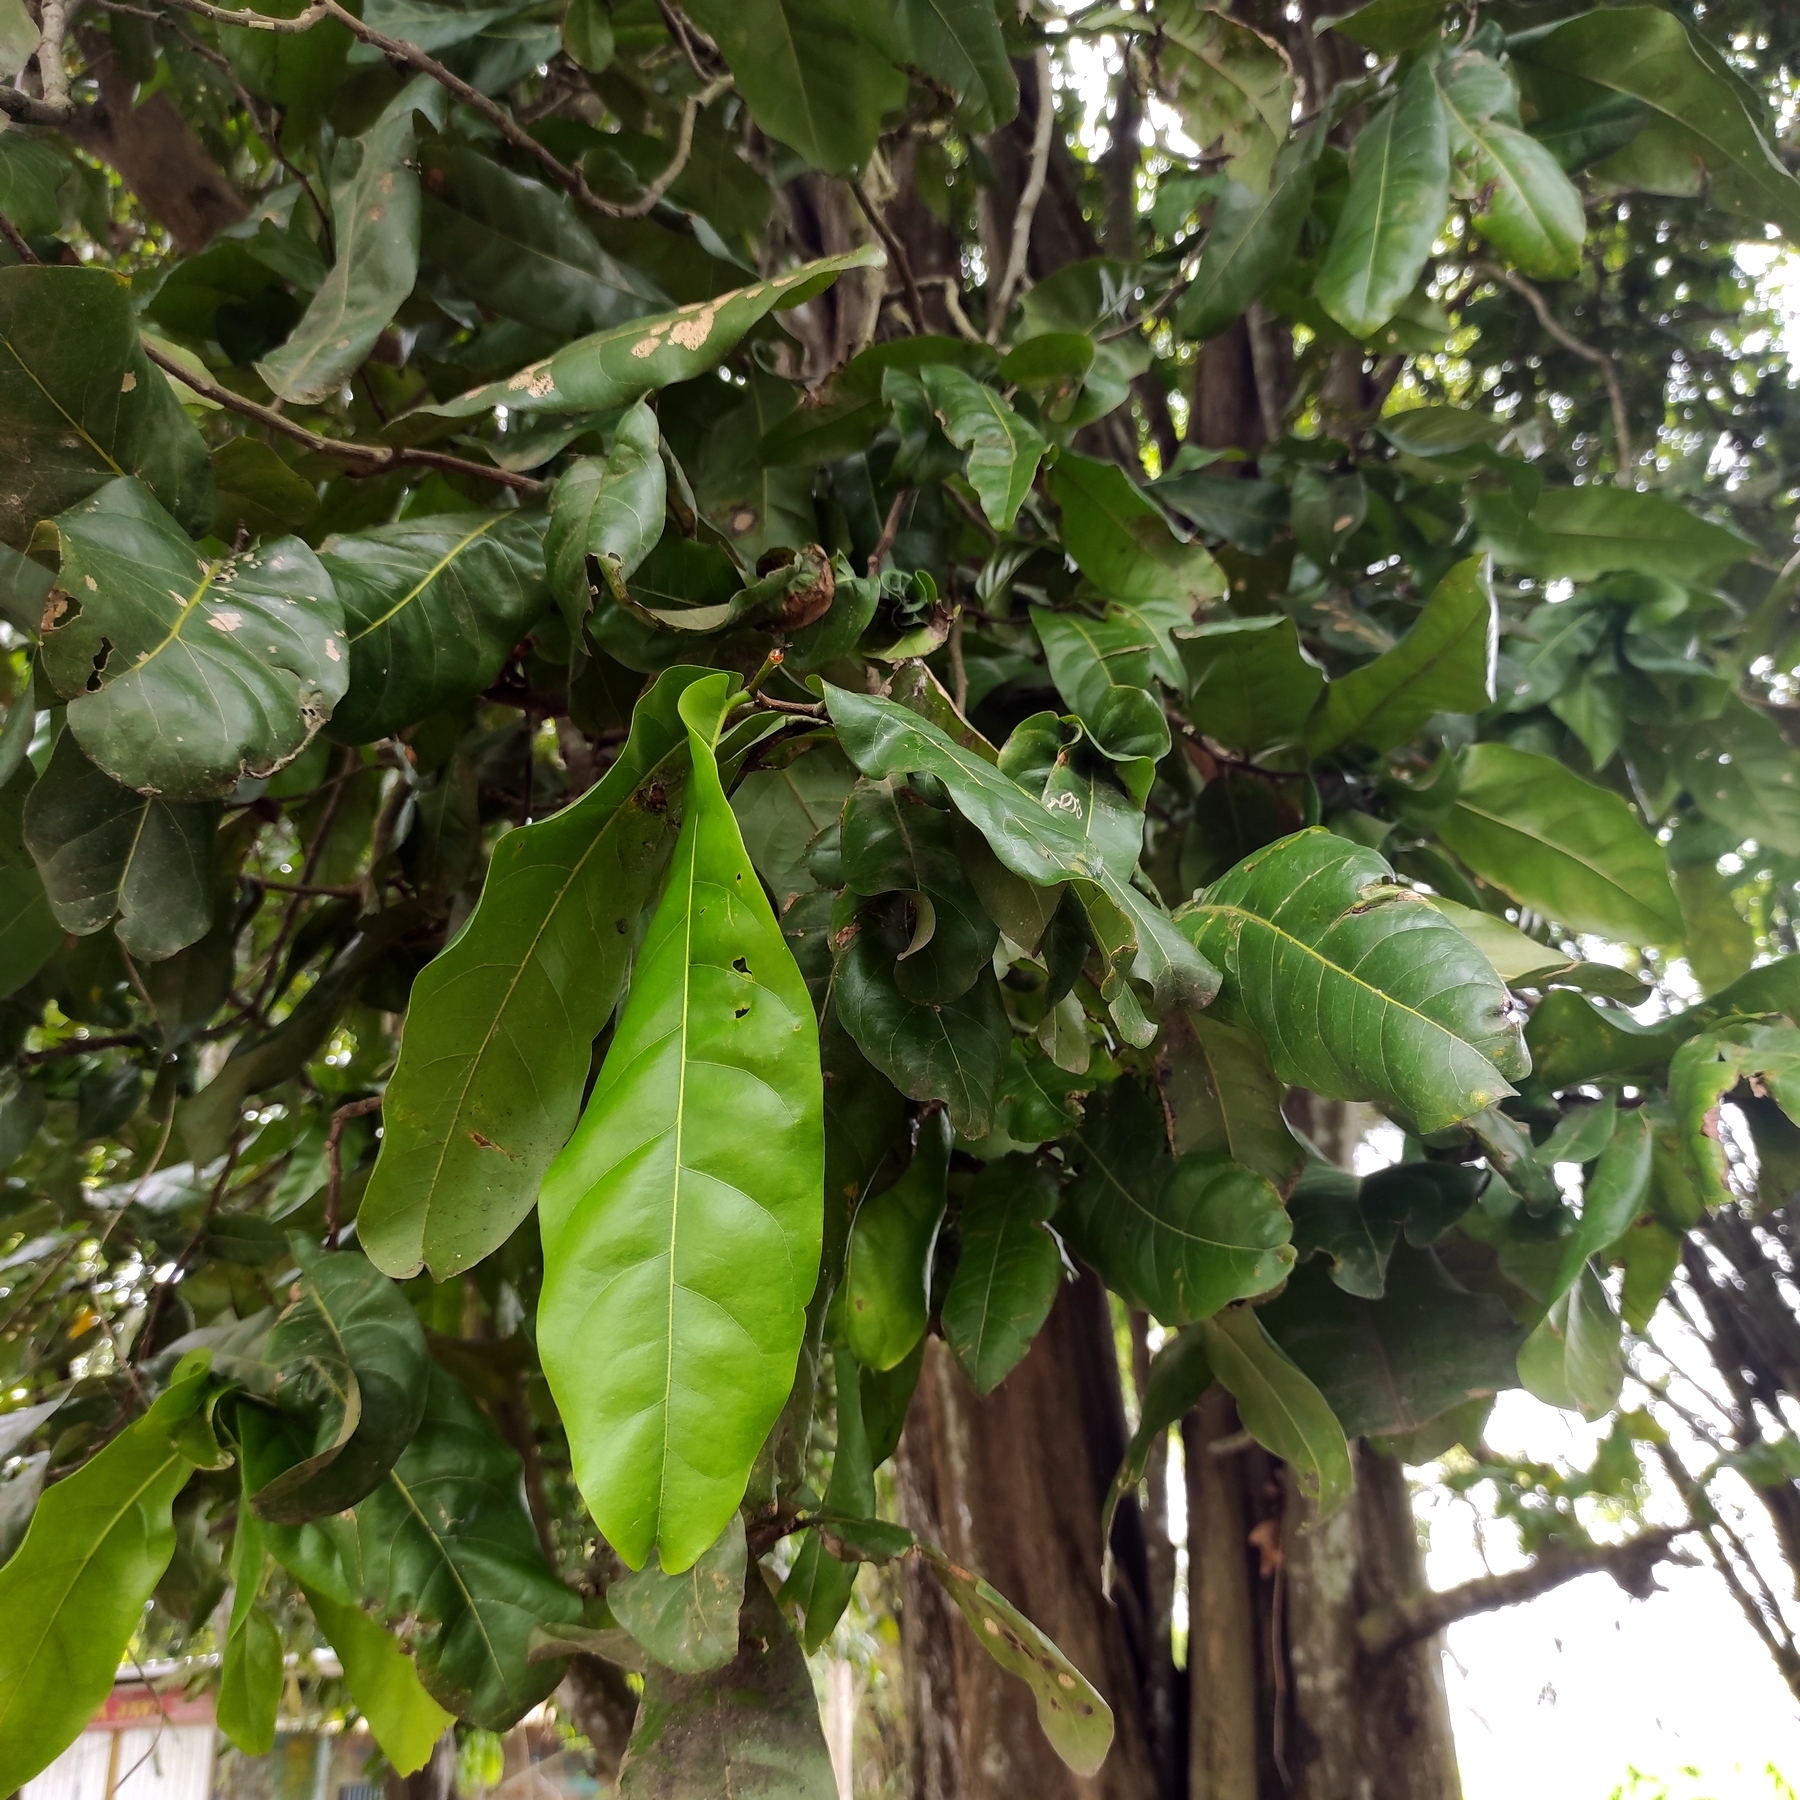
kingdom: Plantae
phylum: Tracheophyta
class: Magnoliopsida
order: Fabales
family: Fabaceae
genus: Inocarpus
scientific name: Inocarpus fagifer
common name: Polynesian chestnut
